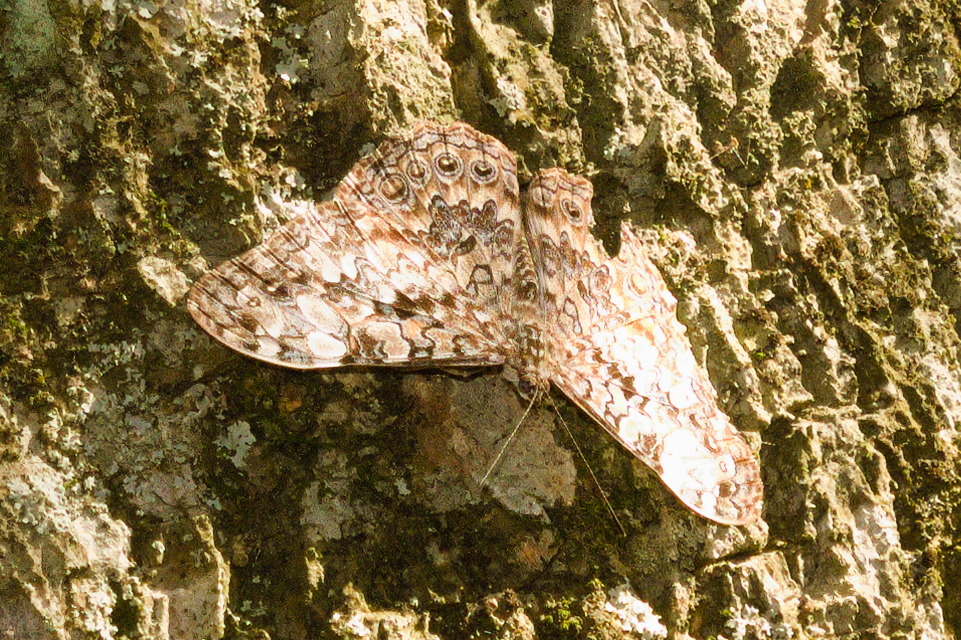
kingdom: Animalia
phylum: Arthropoda
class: Insecta
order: Lepidoptera
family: Nymphalidae
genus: Hamadryas
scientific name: Hamadryas epinome
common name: Epinome cracker
